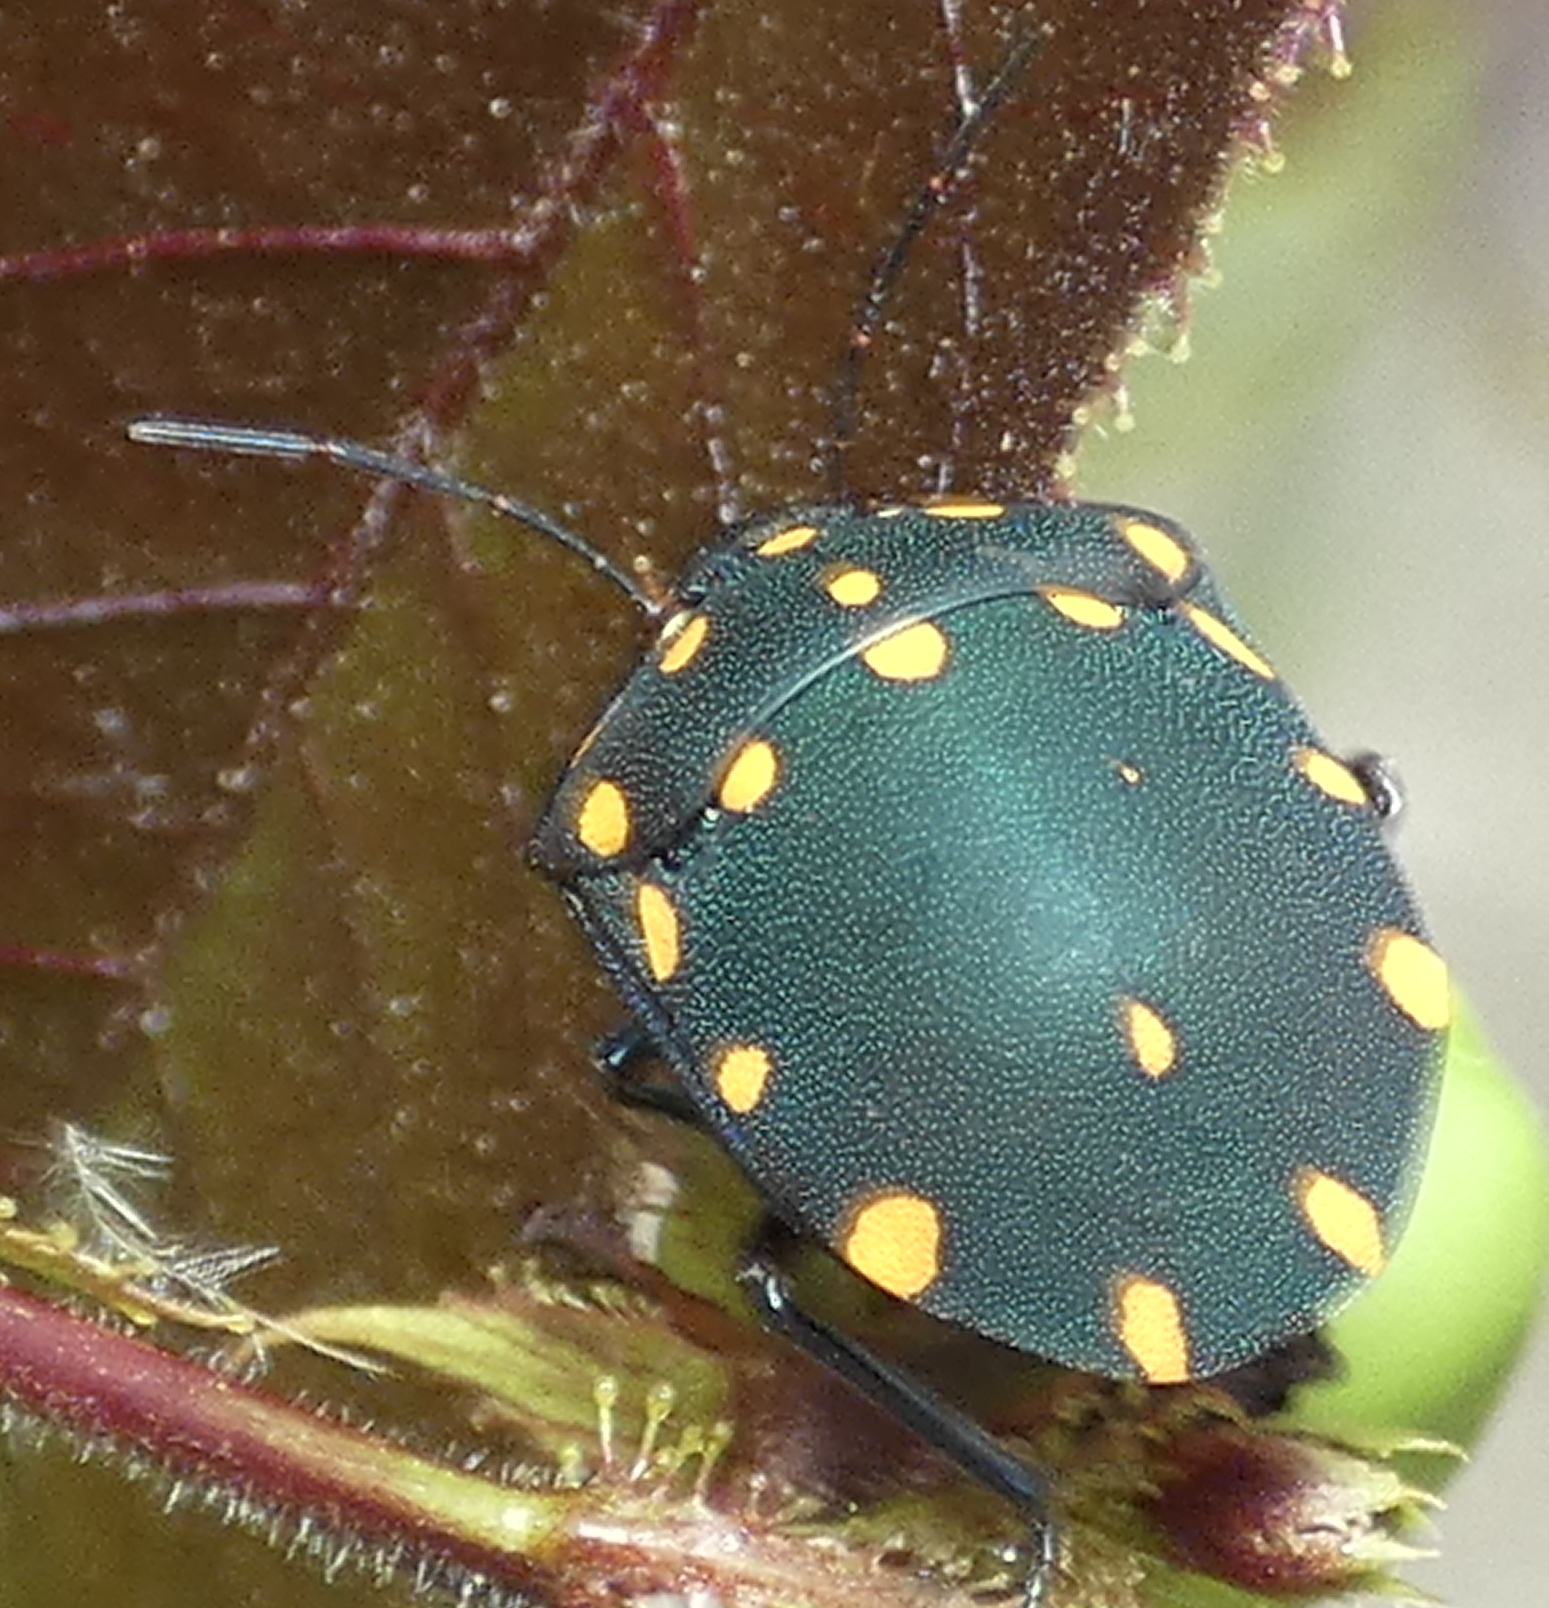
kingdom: Animalia
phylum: Arthropoda
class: Insecta
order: Hemiptera
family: Scutelleridae
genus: Pachycoris
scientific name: Pachycoris torridus
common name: Torrid jewel bug
